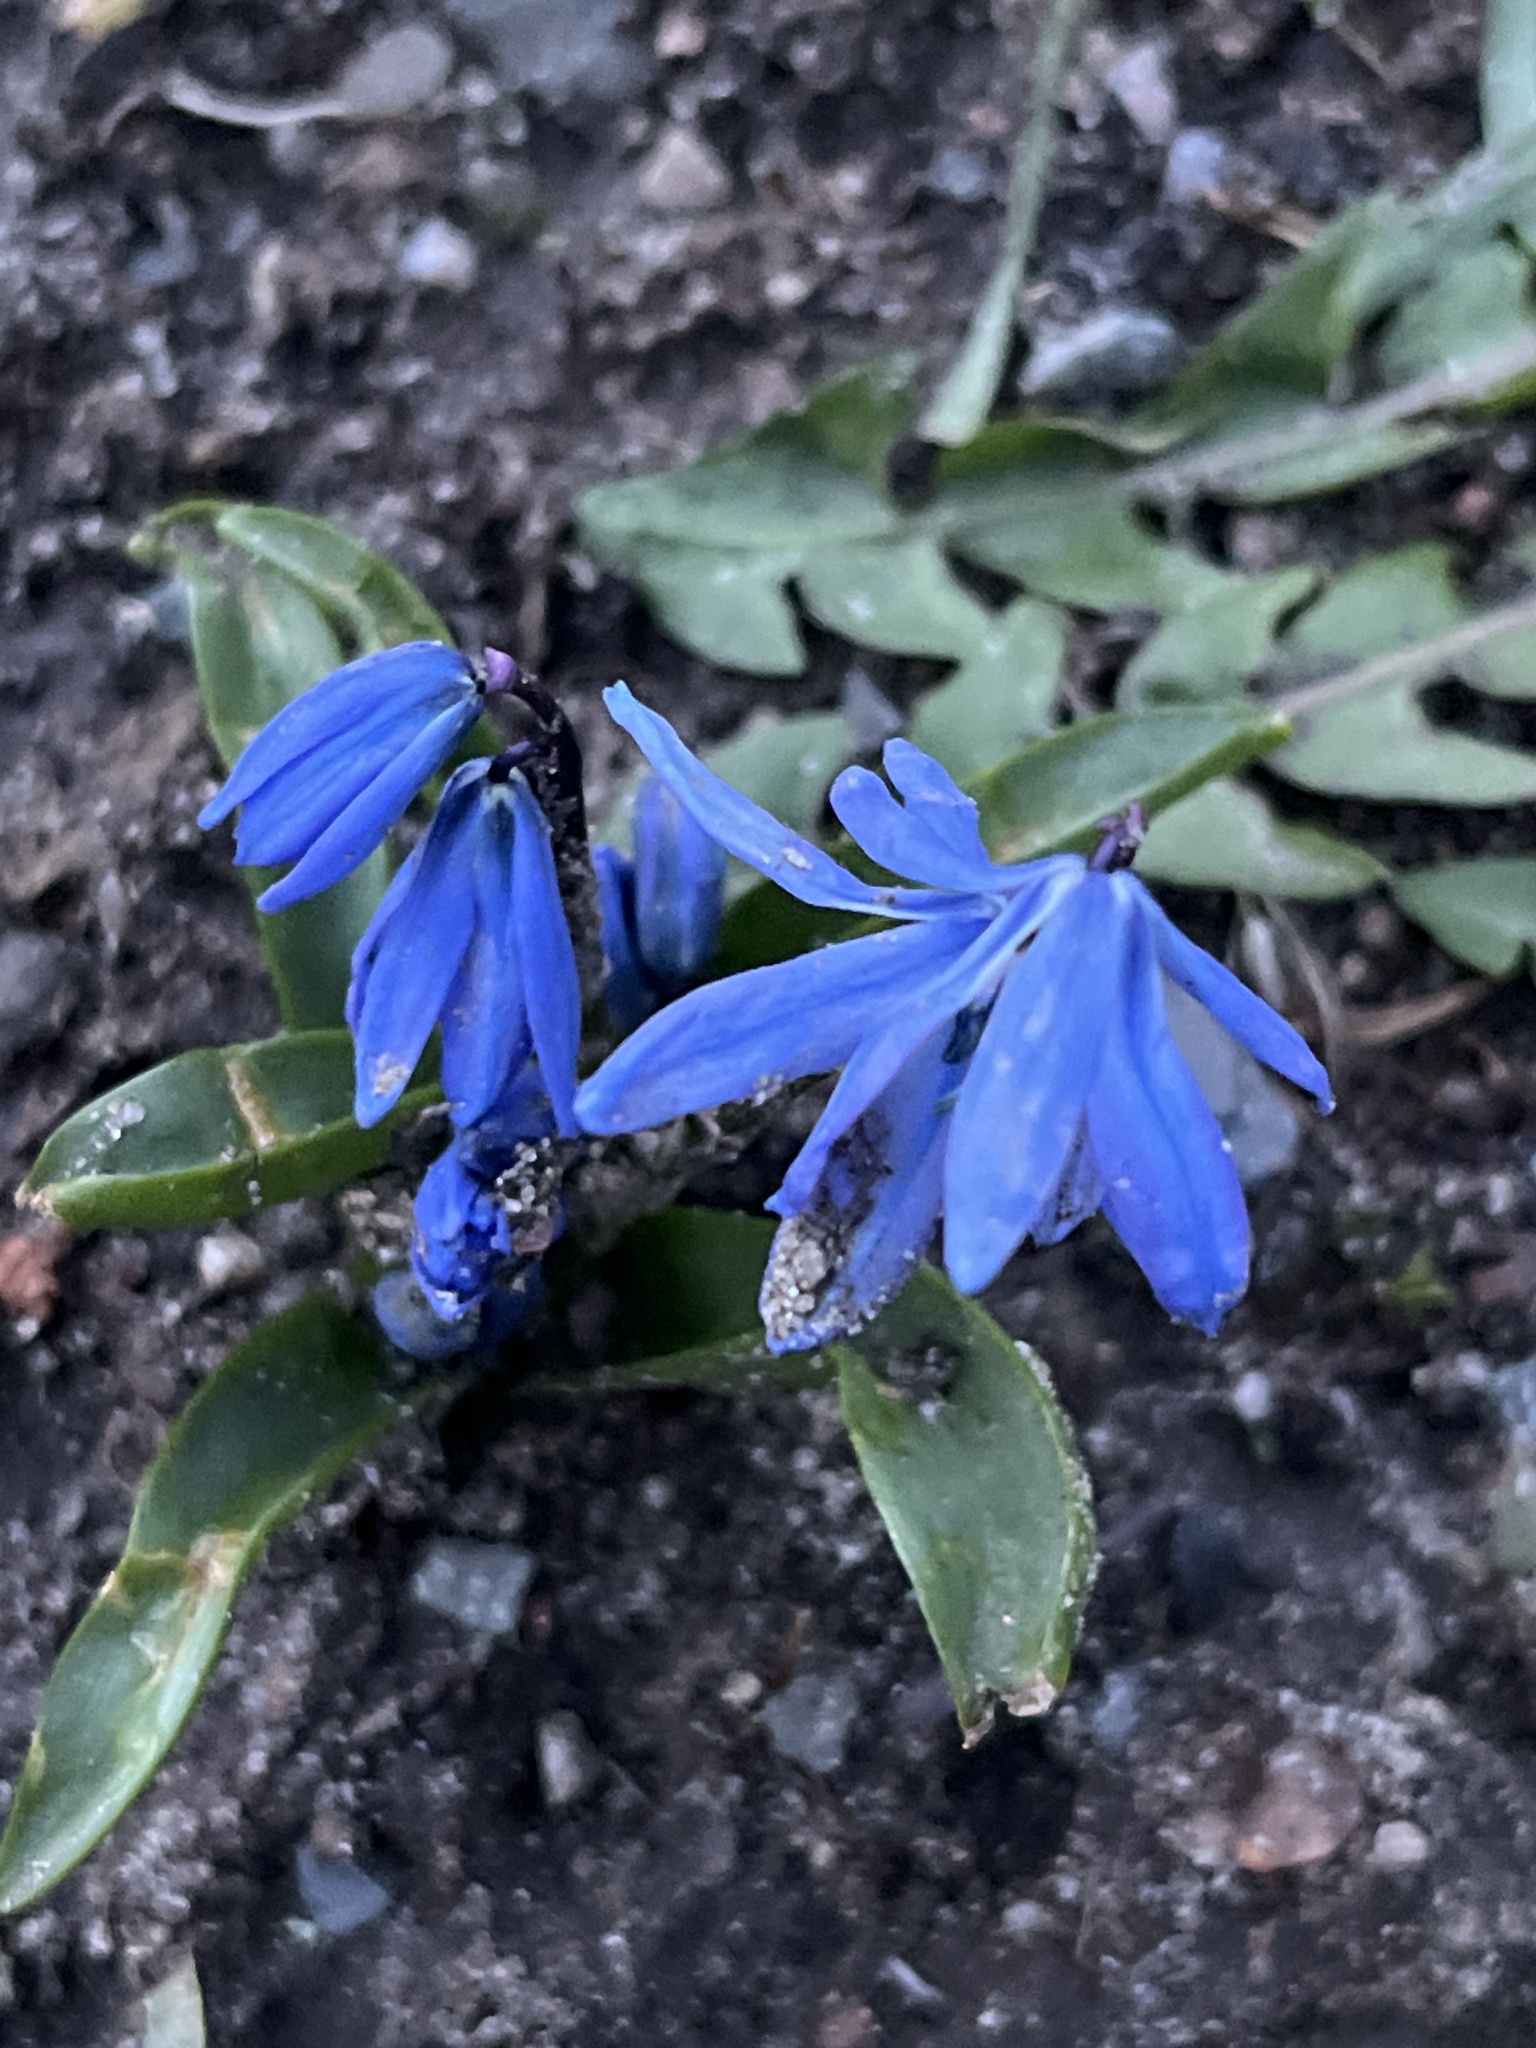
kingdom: Plantae
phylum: Tracheophyta
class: Liliopsida
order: Asparagales
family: Asparagaceae
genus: Scilla
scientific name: Scilla siberica
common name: Siberian squill
